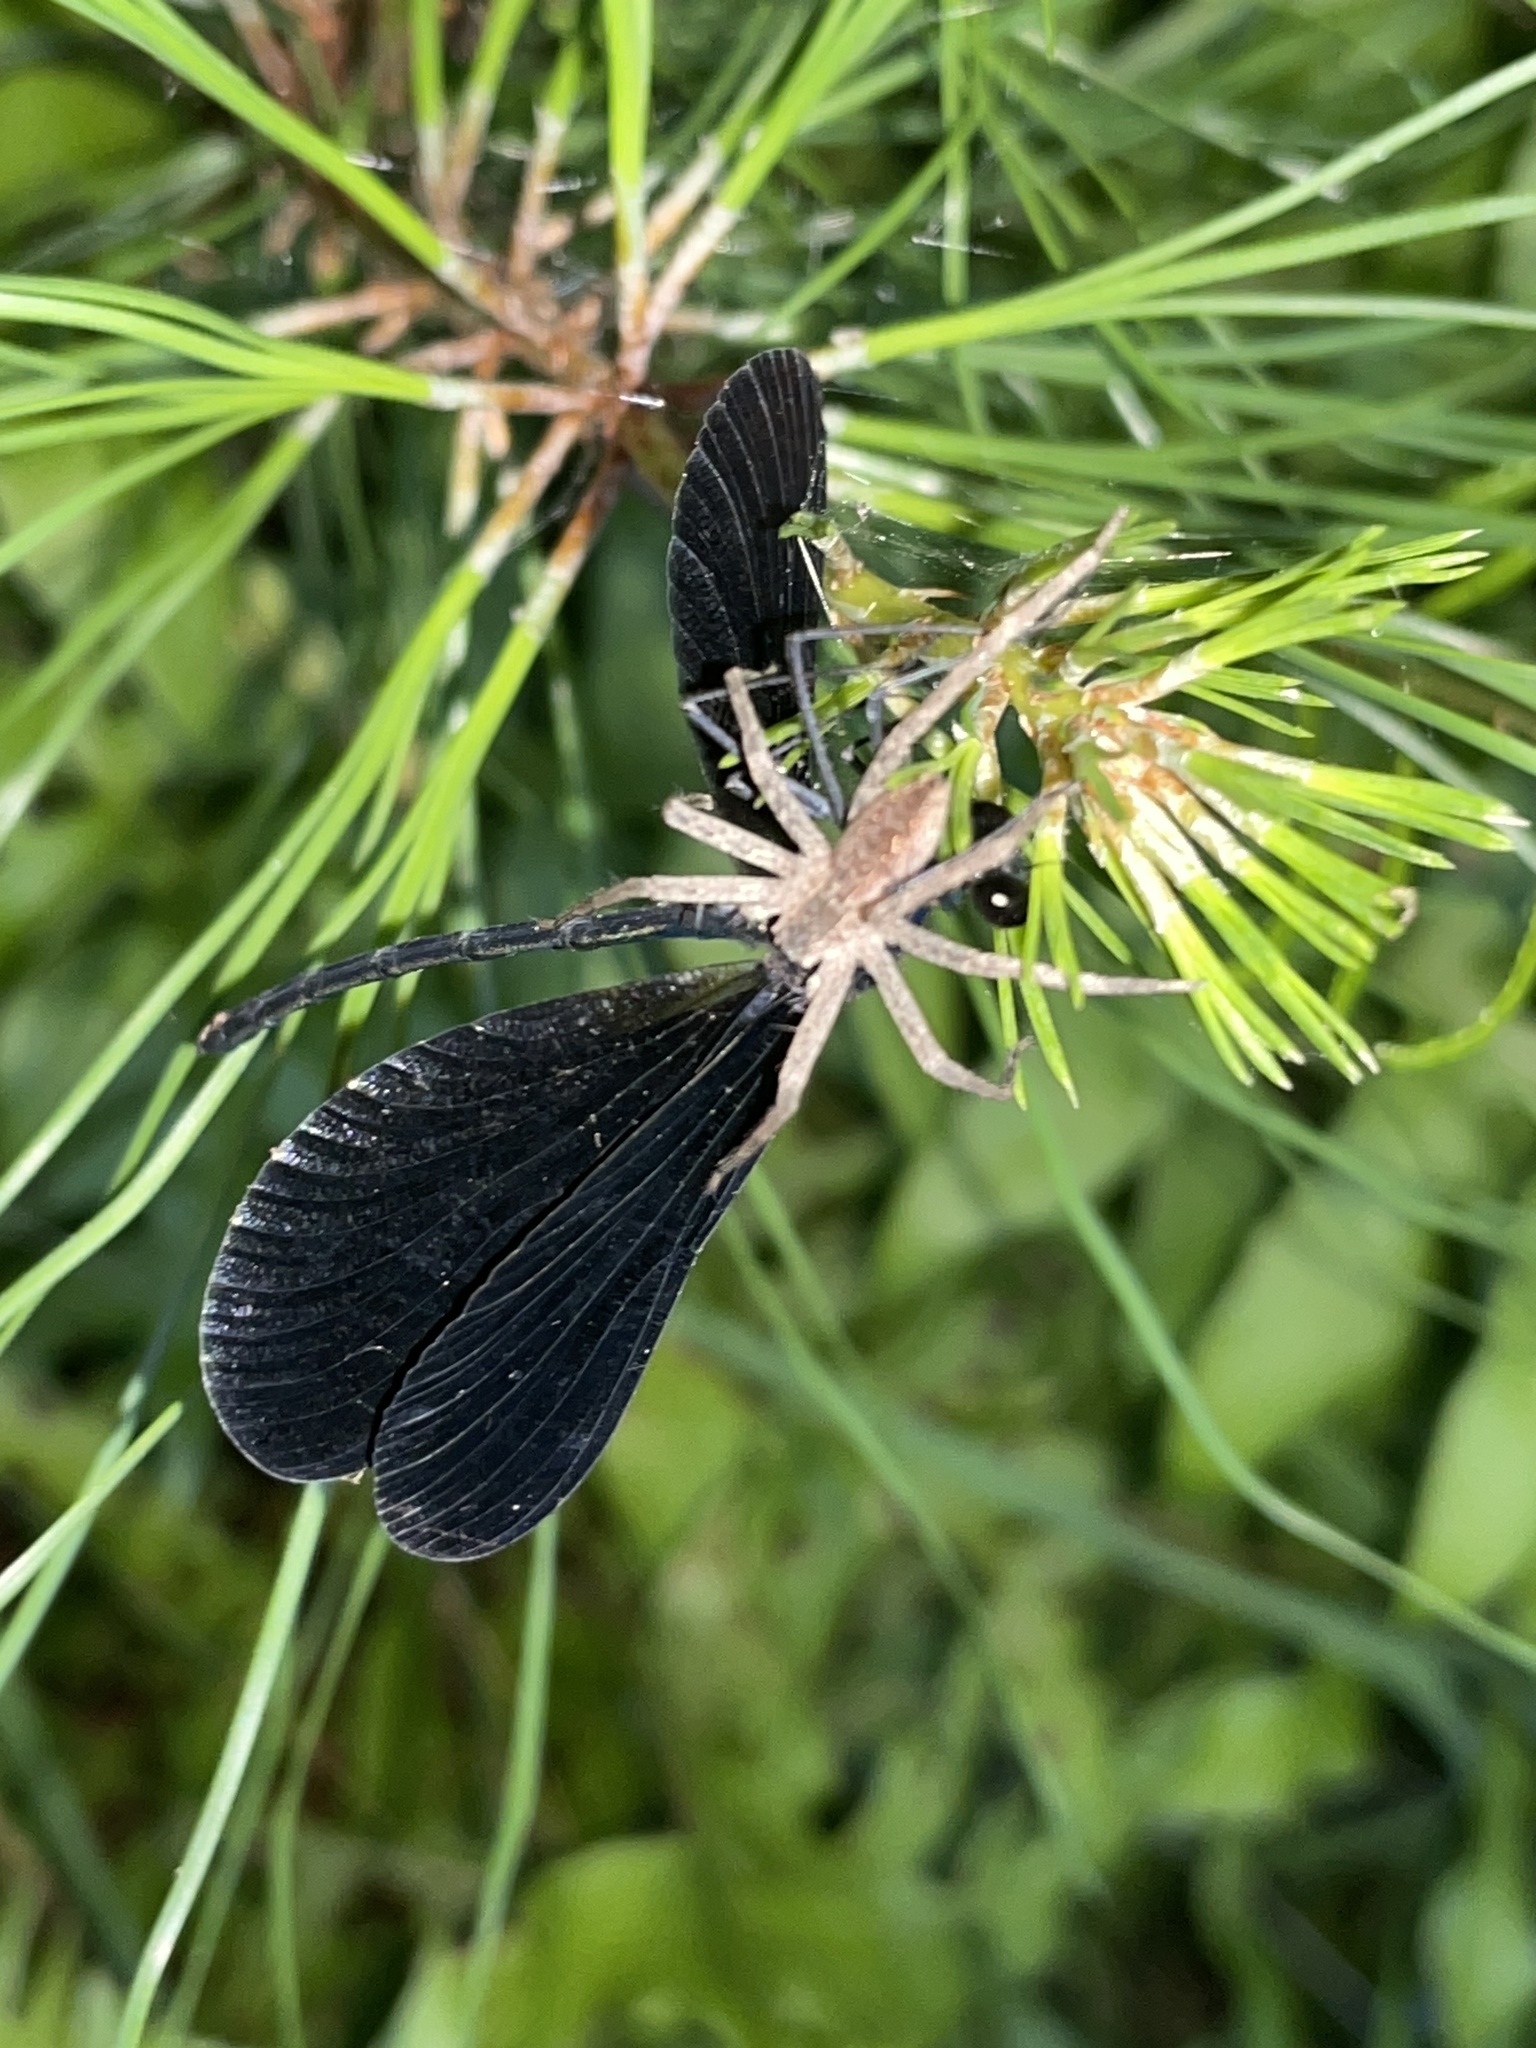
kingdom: Animalia
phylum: Arthropoda
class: Insecta
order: Odonata
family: Calopterygidae
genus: Calopteryx
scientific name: Calopteryx maculata
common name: Ebony jewelwing
